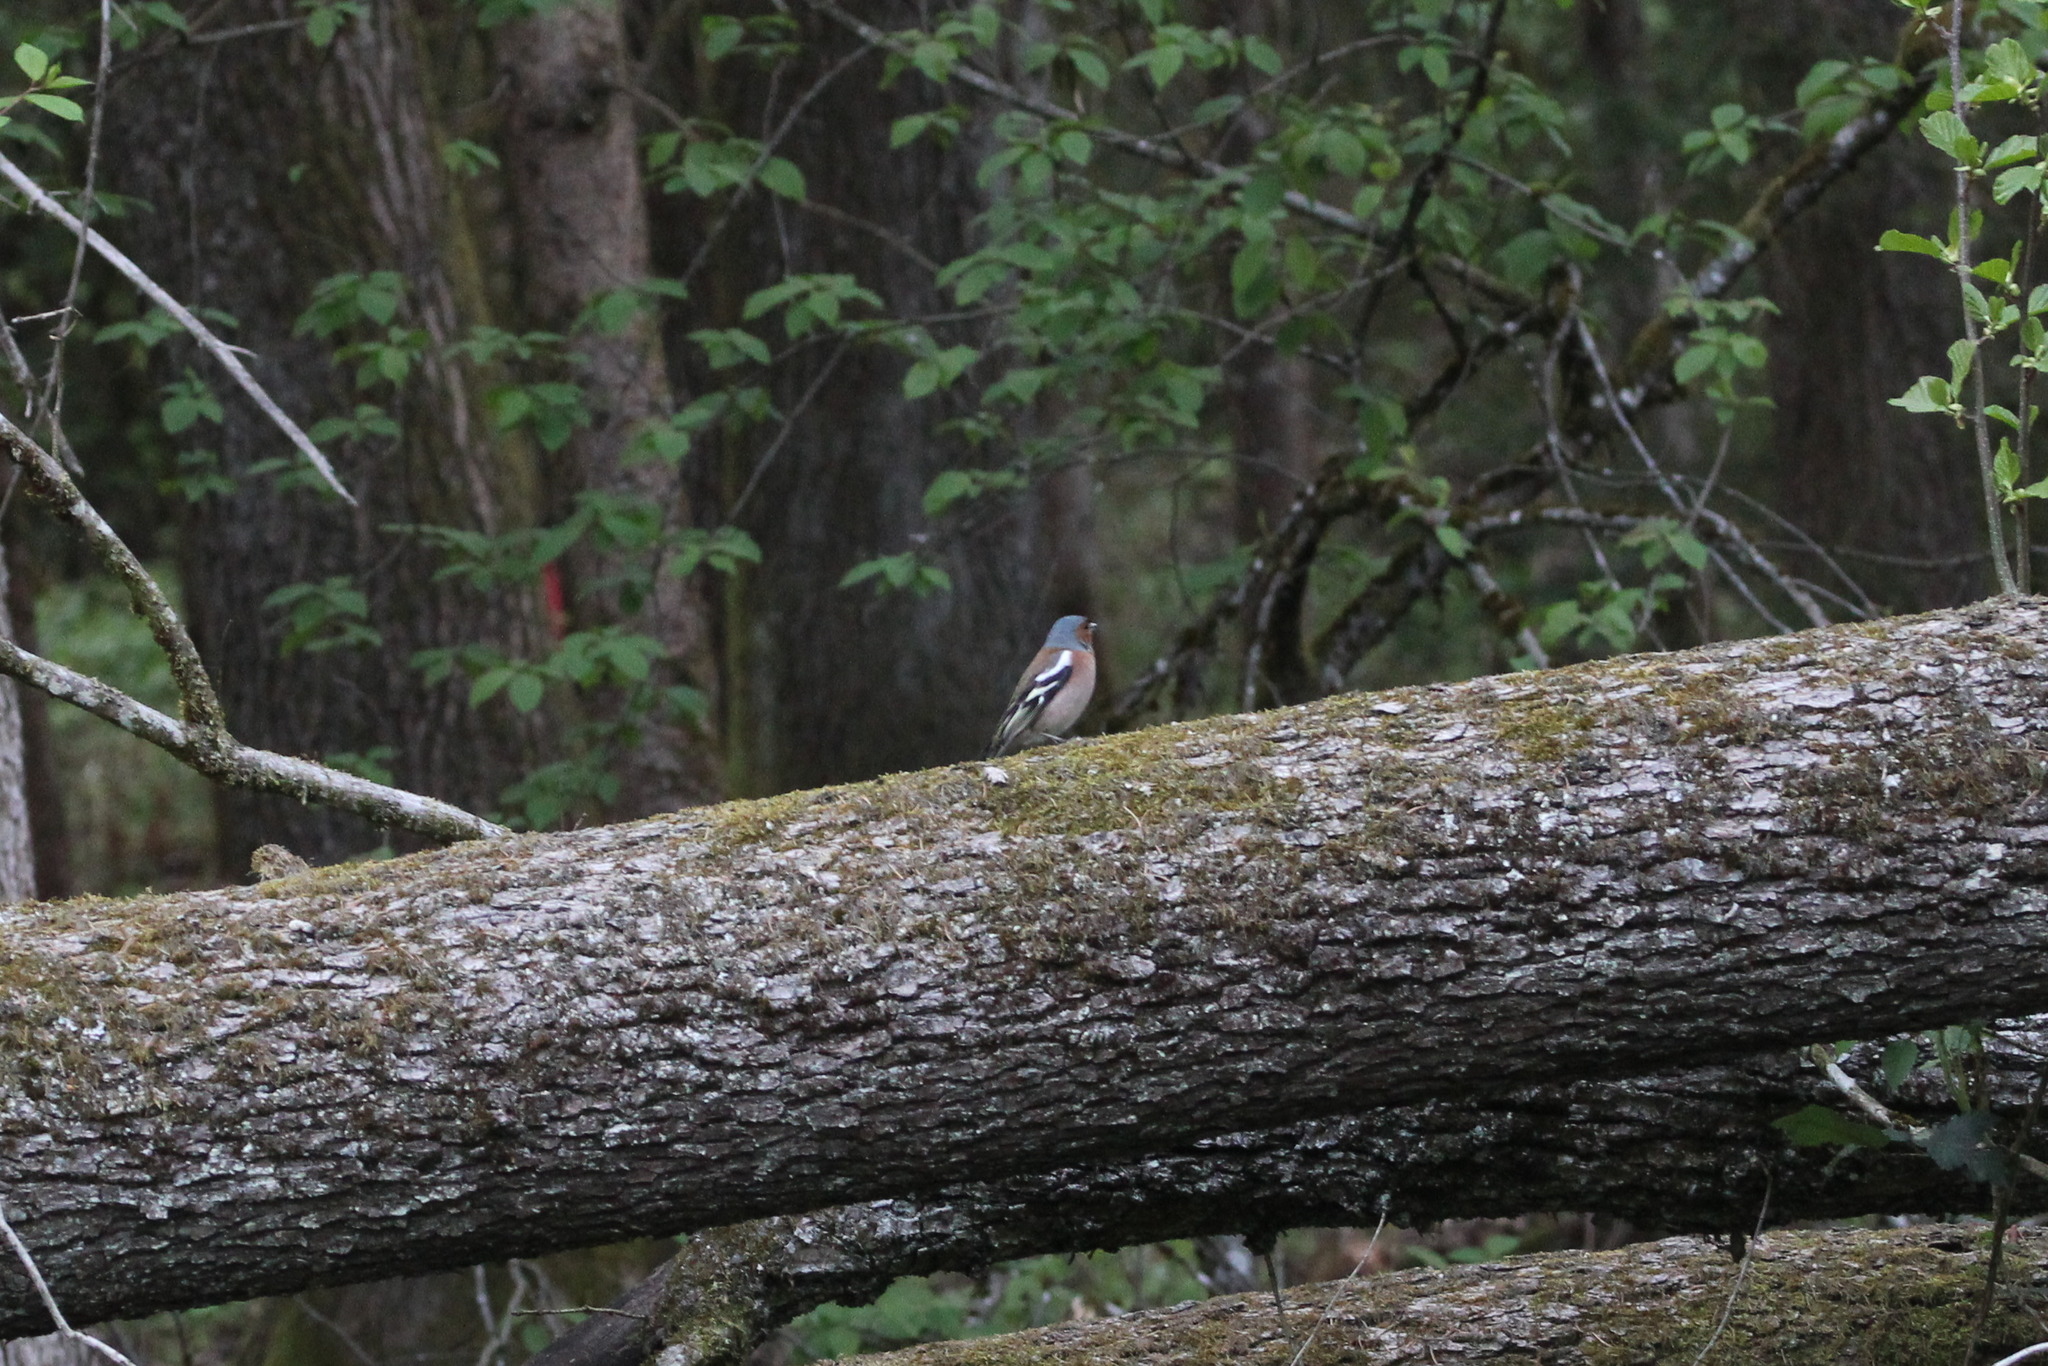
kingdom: Animalia
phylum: Chordata
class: Aves
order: Passeriformes
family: Fringillidae
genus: Fringilla
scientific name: Fringilla coelebs
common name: Common chaffinch
